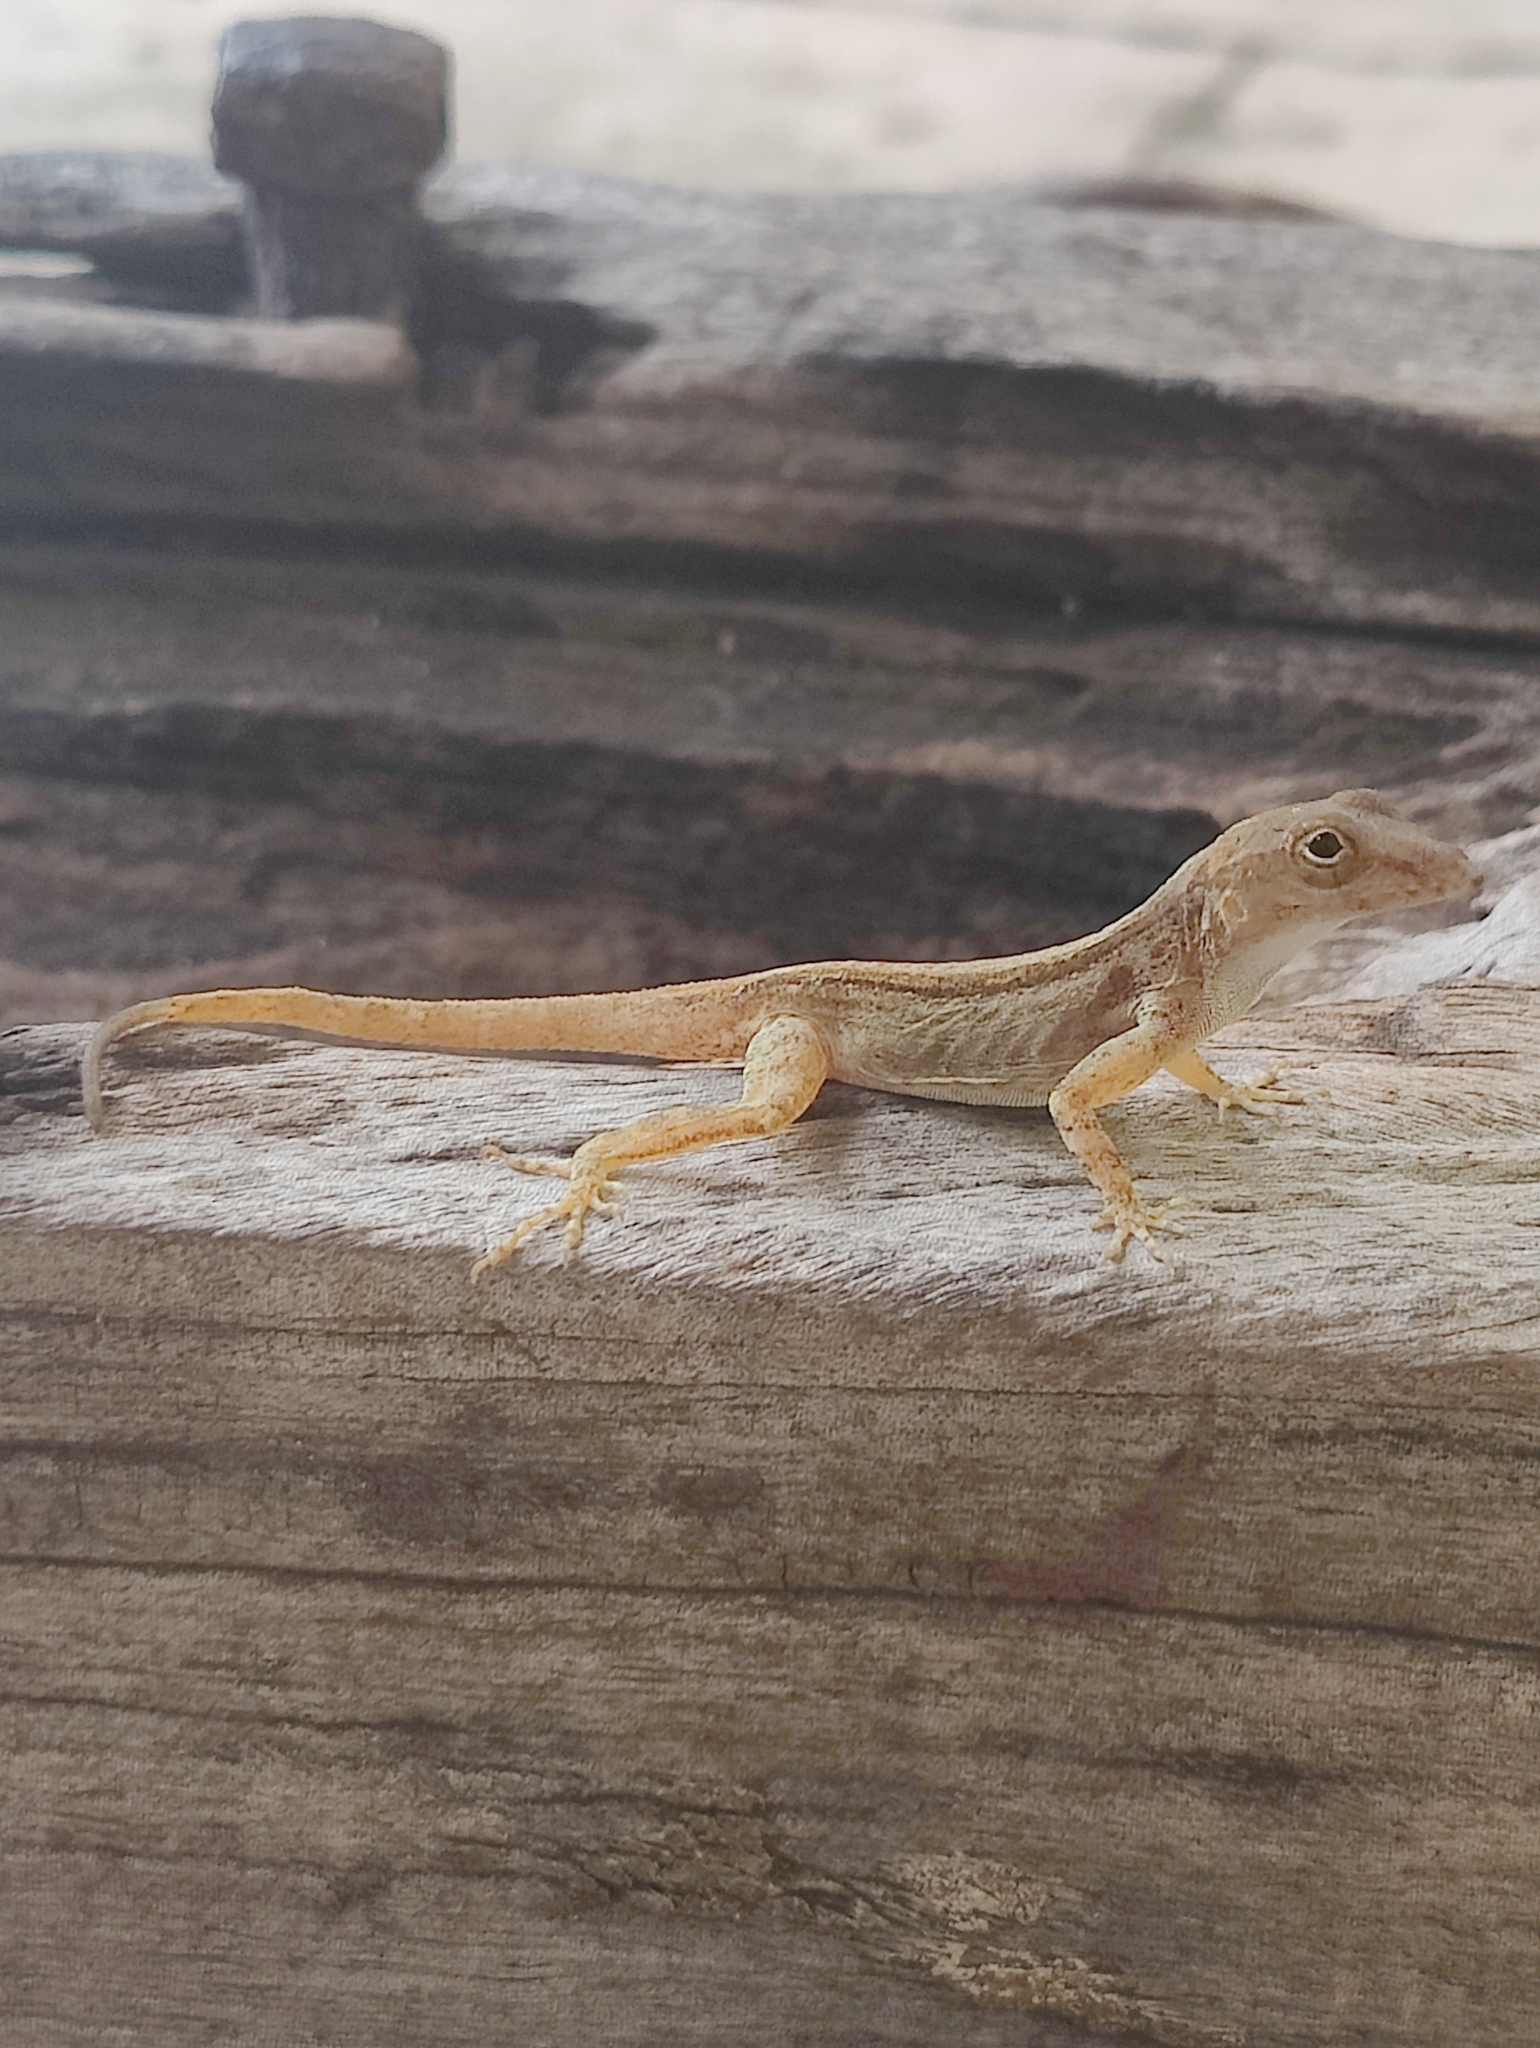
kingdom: Animalia
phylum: Chordata
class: Squamata
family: Dactyloidae
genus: Anolis
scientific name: Anolis cristatellus
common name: Crested anole
